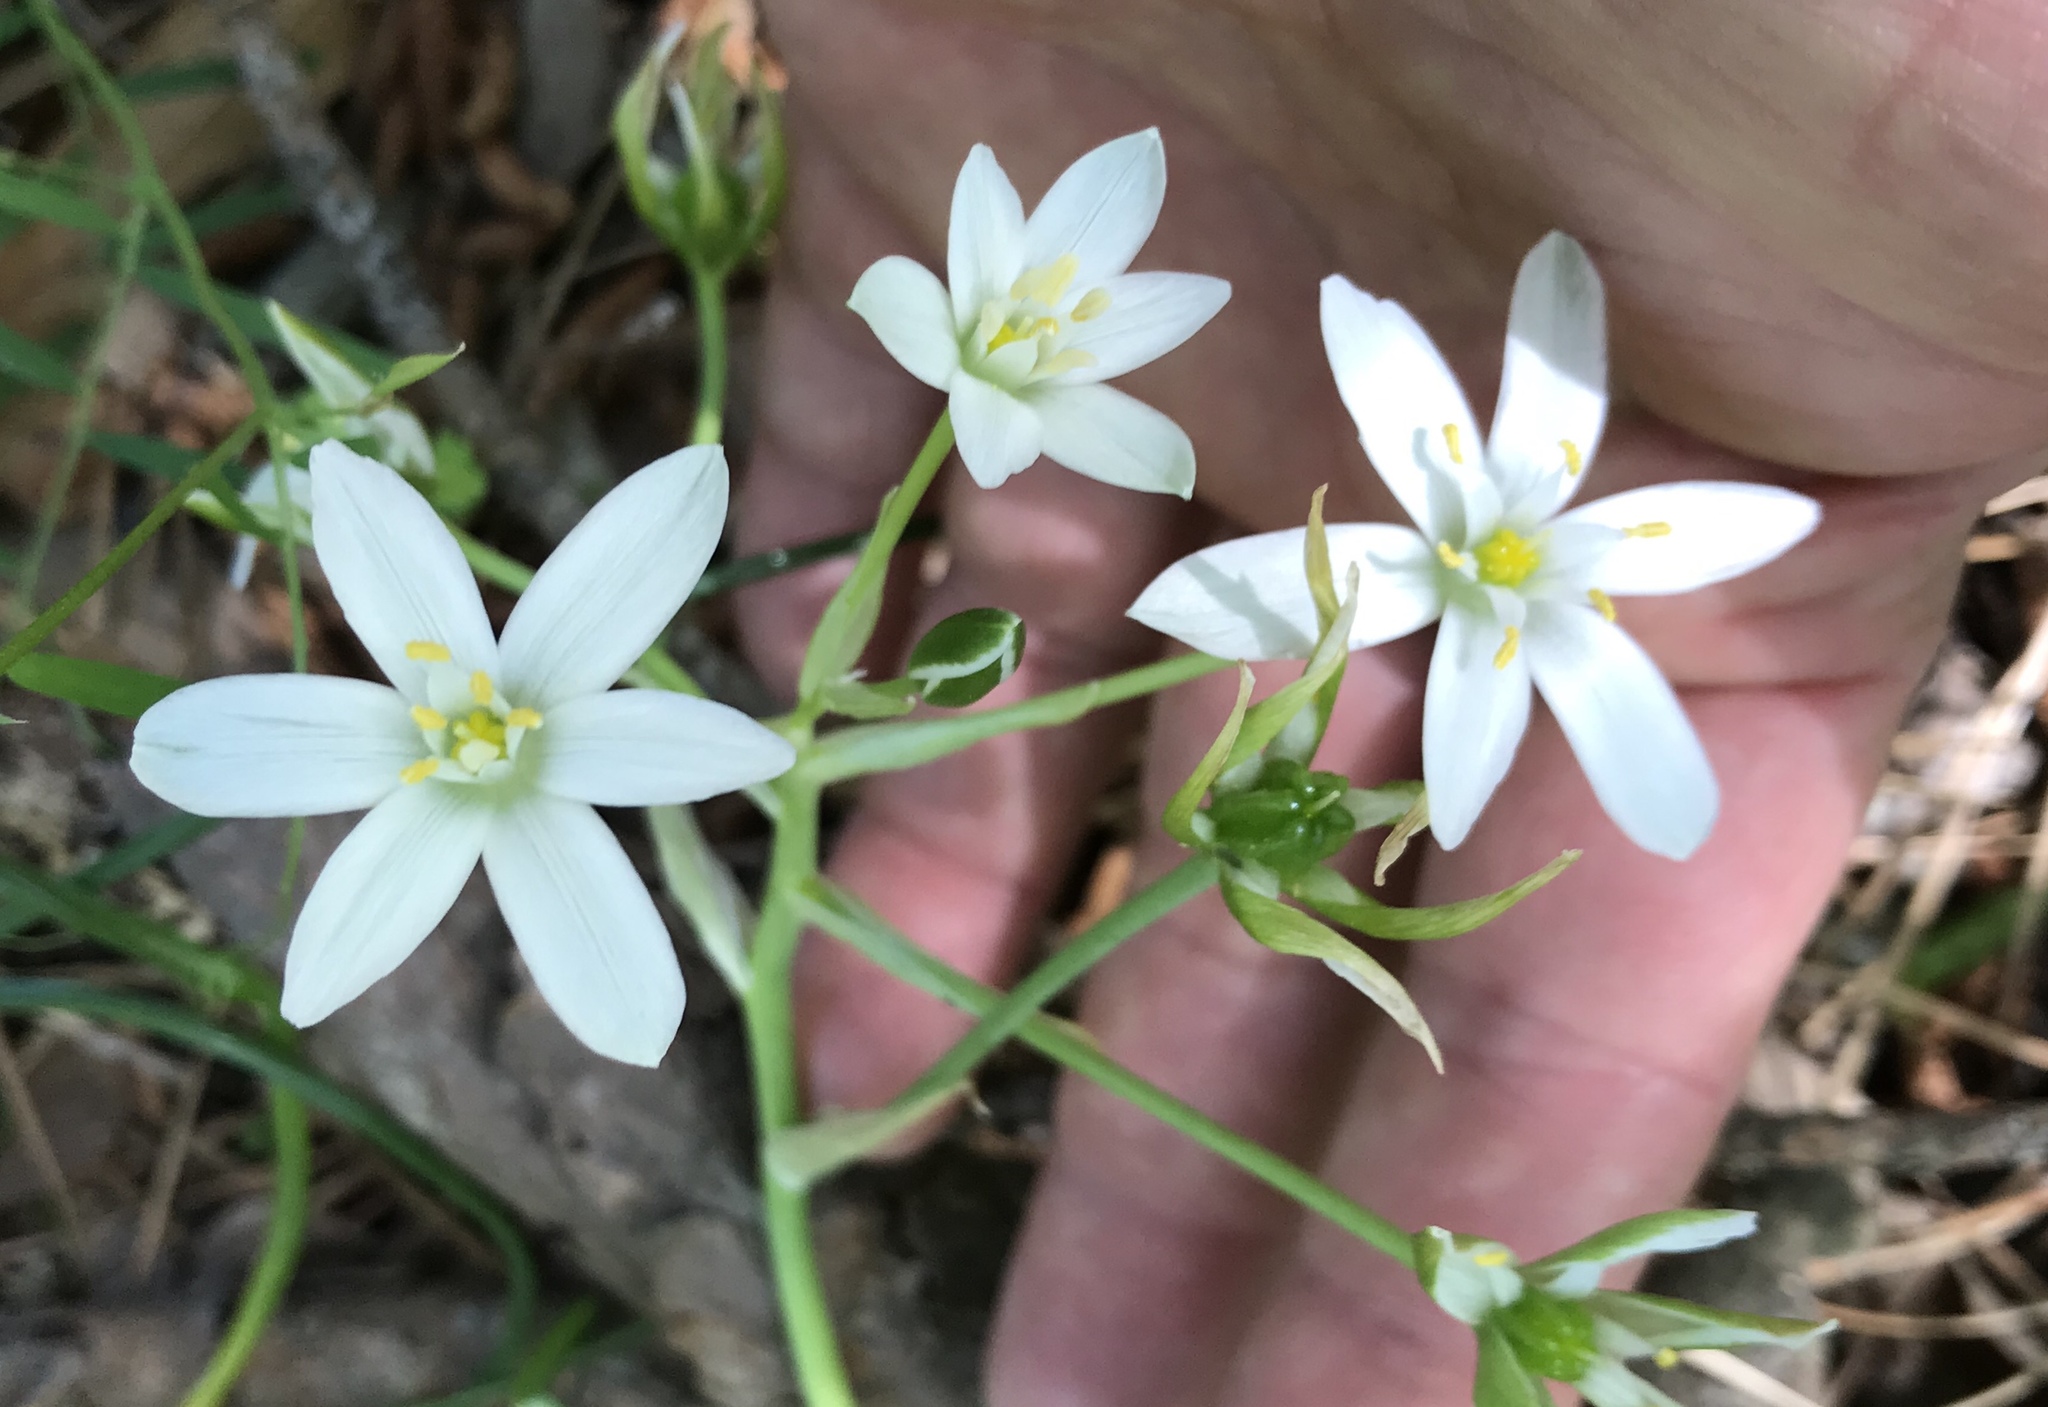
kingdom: Plantae
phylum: Tracheophyta
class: Liliopsida
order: Asparagales
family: Asparagaceae
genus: Ornithogalum
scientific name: Ornithogalum umbellatum
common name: Garden star-of-bethlehem
